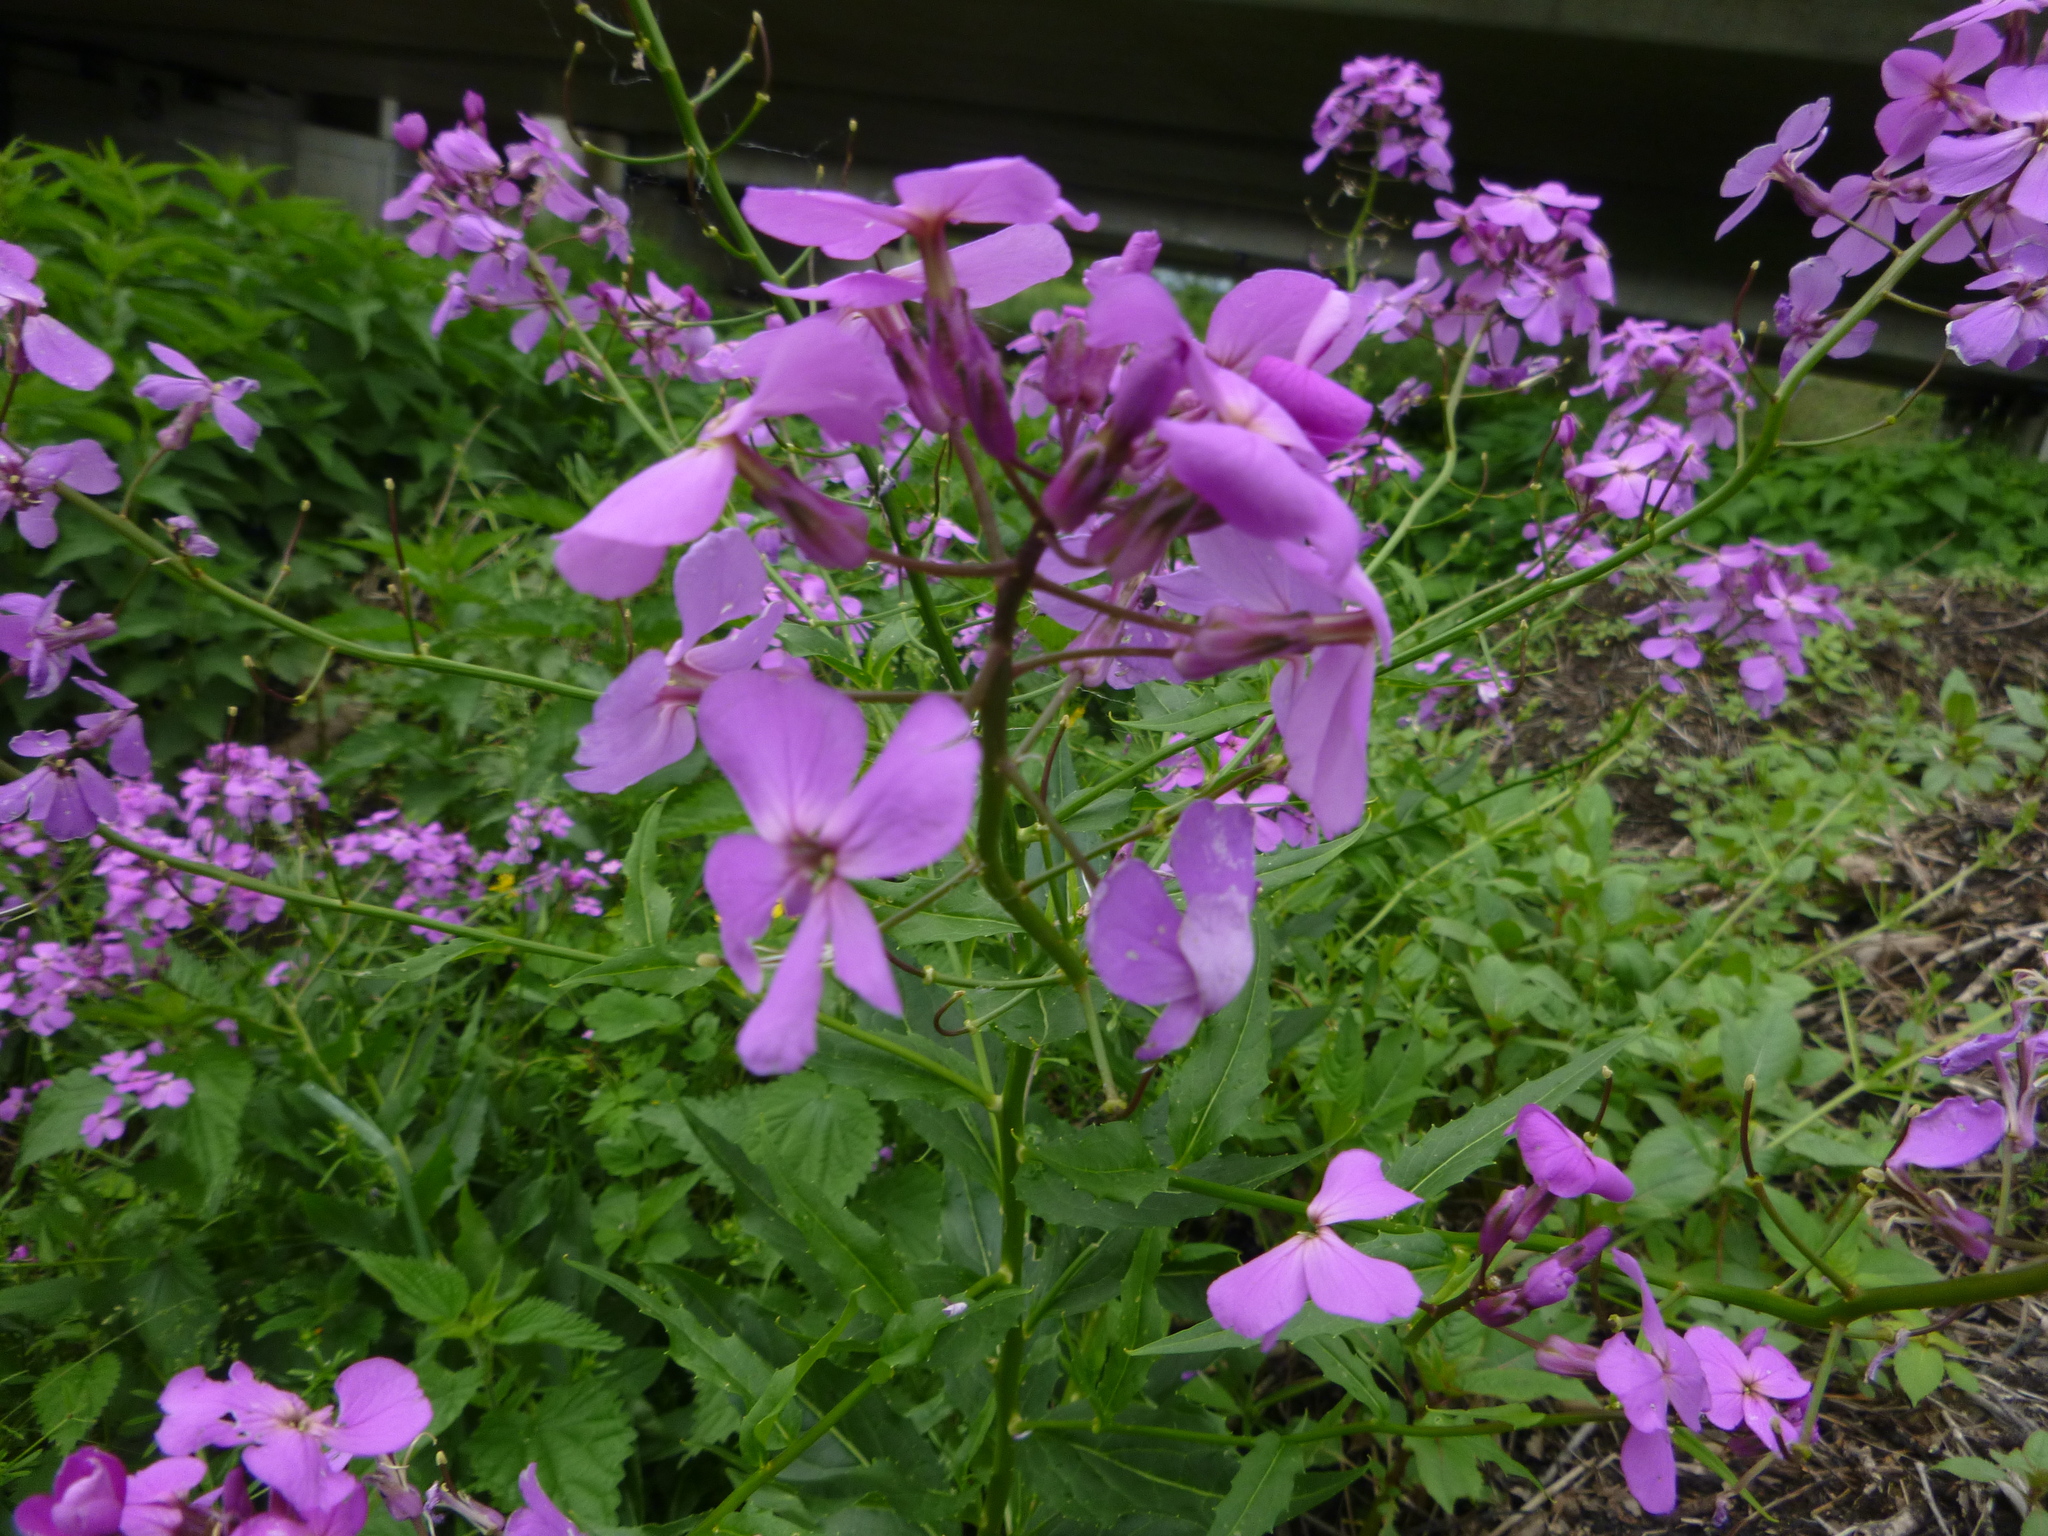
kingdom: Plantae
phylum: Tracheophyta
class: Magnoliopsida
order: Brassicales
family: Brassicaceae
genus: Hesperis
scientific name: Hesperis matronalis
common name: Dame's-violet
